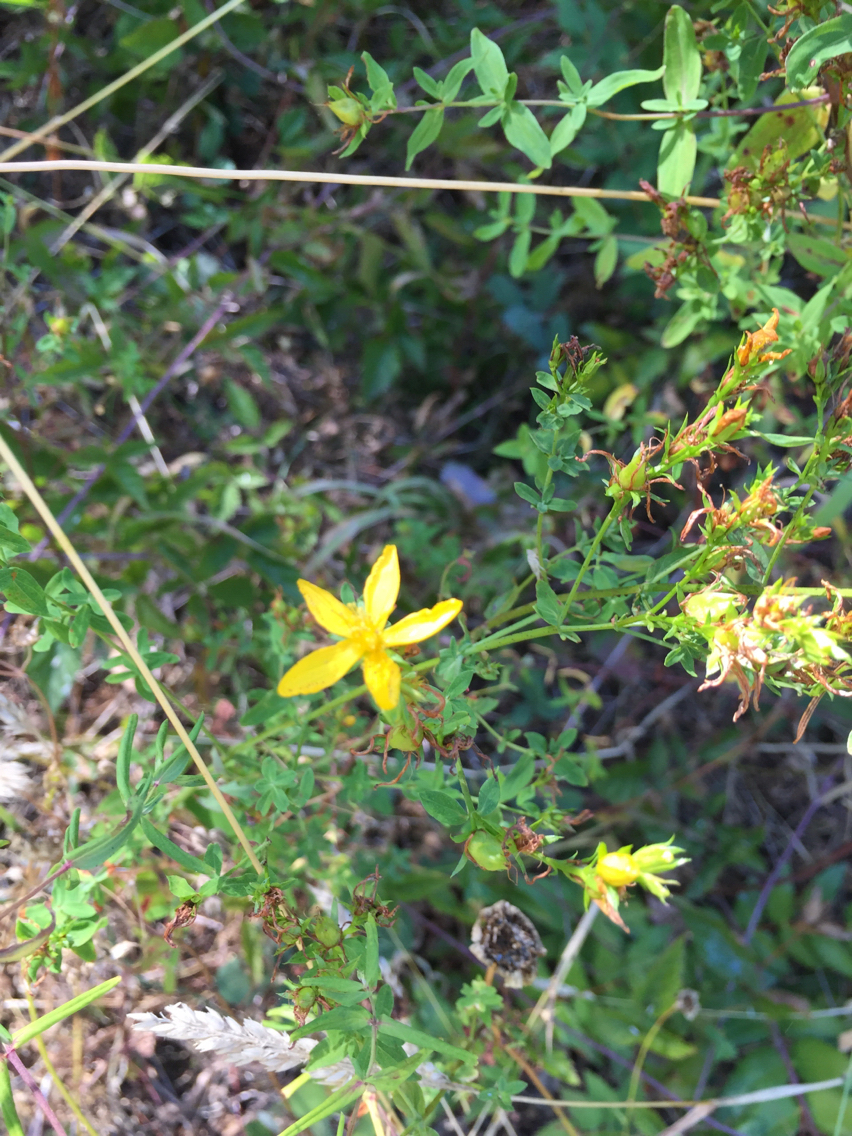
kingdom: Plantae
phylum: Tracheophyta
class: Magnoliopsida
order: Malpighiales
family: Hypericaceae
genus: Hypericum
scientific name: Hypericum perforatum
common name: Common st. johnswort
